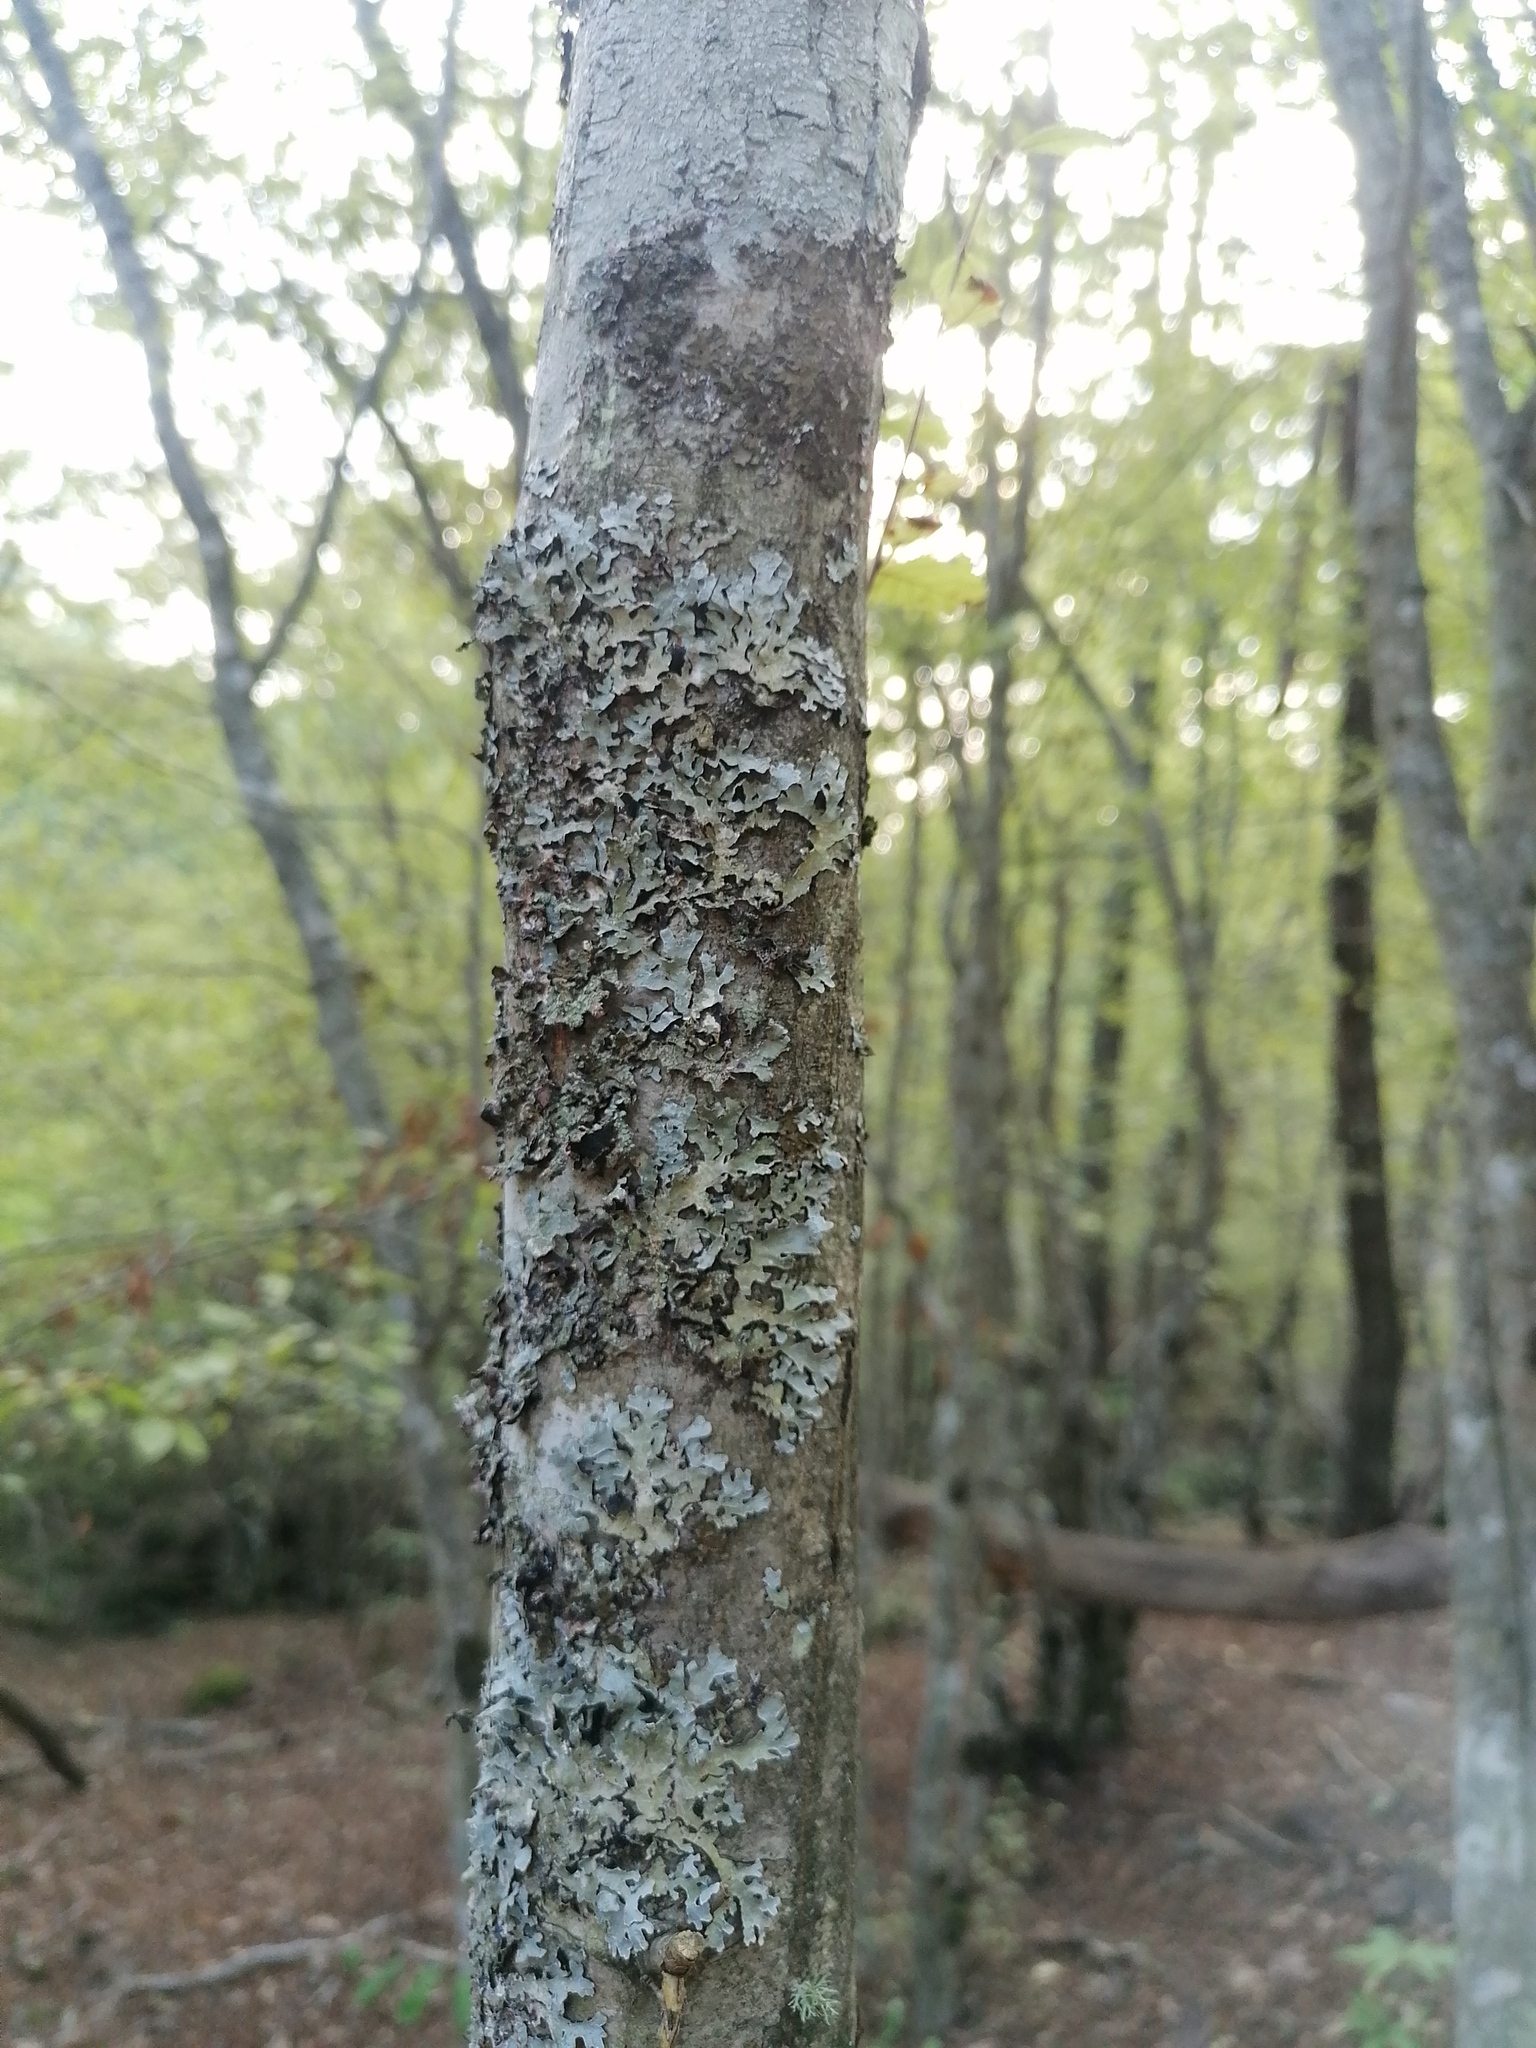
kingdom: Fungi
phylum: Ascomycota
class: Lecanoromycetes
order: Lecanorales
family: Parmeliaceae
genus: Parmelia
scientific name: Parmelia sulcata
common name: Netted shield lichen
